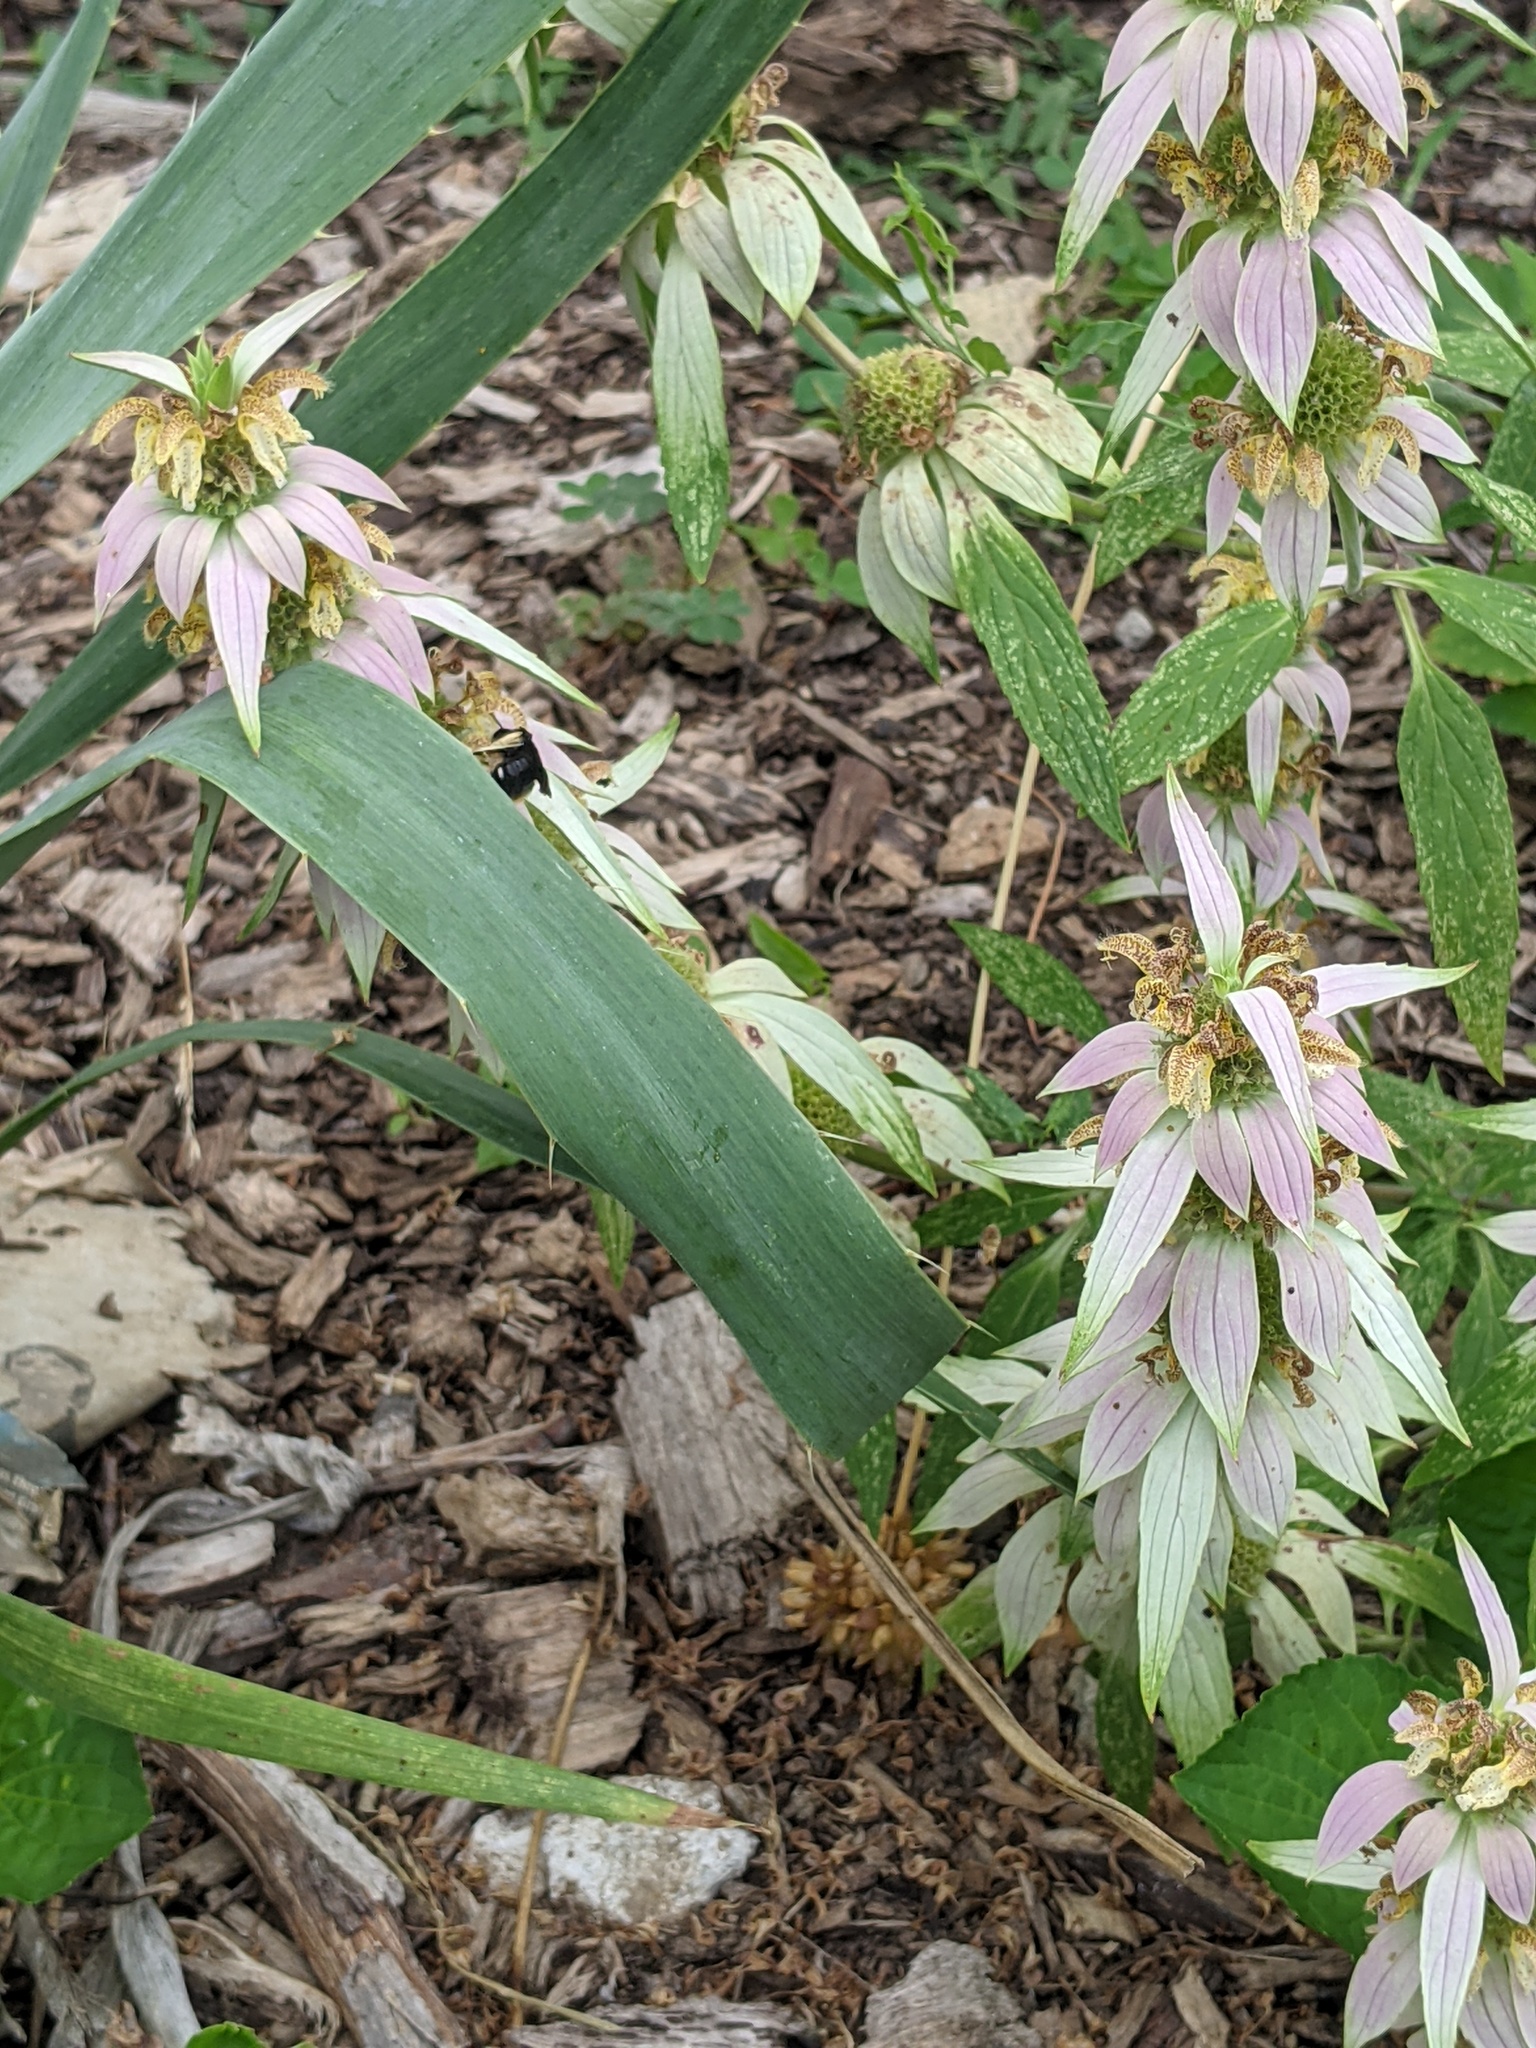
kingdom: Animalia
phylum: Arthropoda
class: Insecta
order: Hymenoptera
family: Apidae
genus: Melissodes
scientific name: Melissodes bimaculatus
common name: Two-spotted long-horned bee
